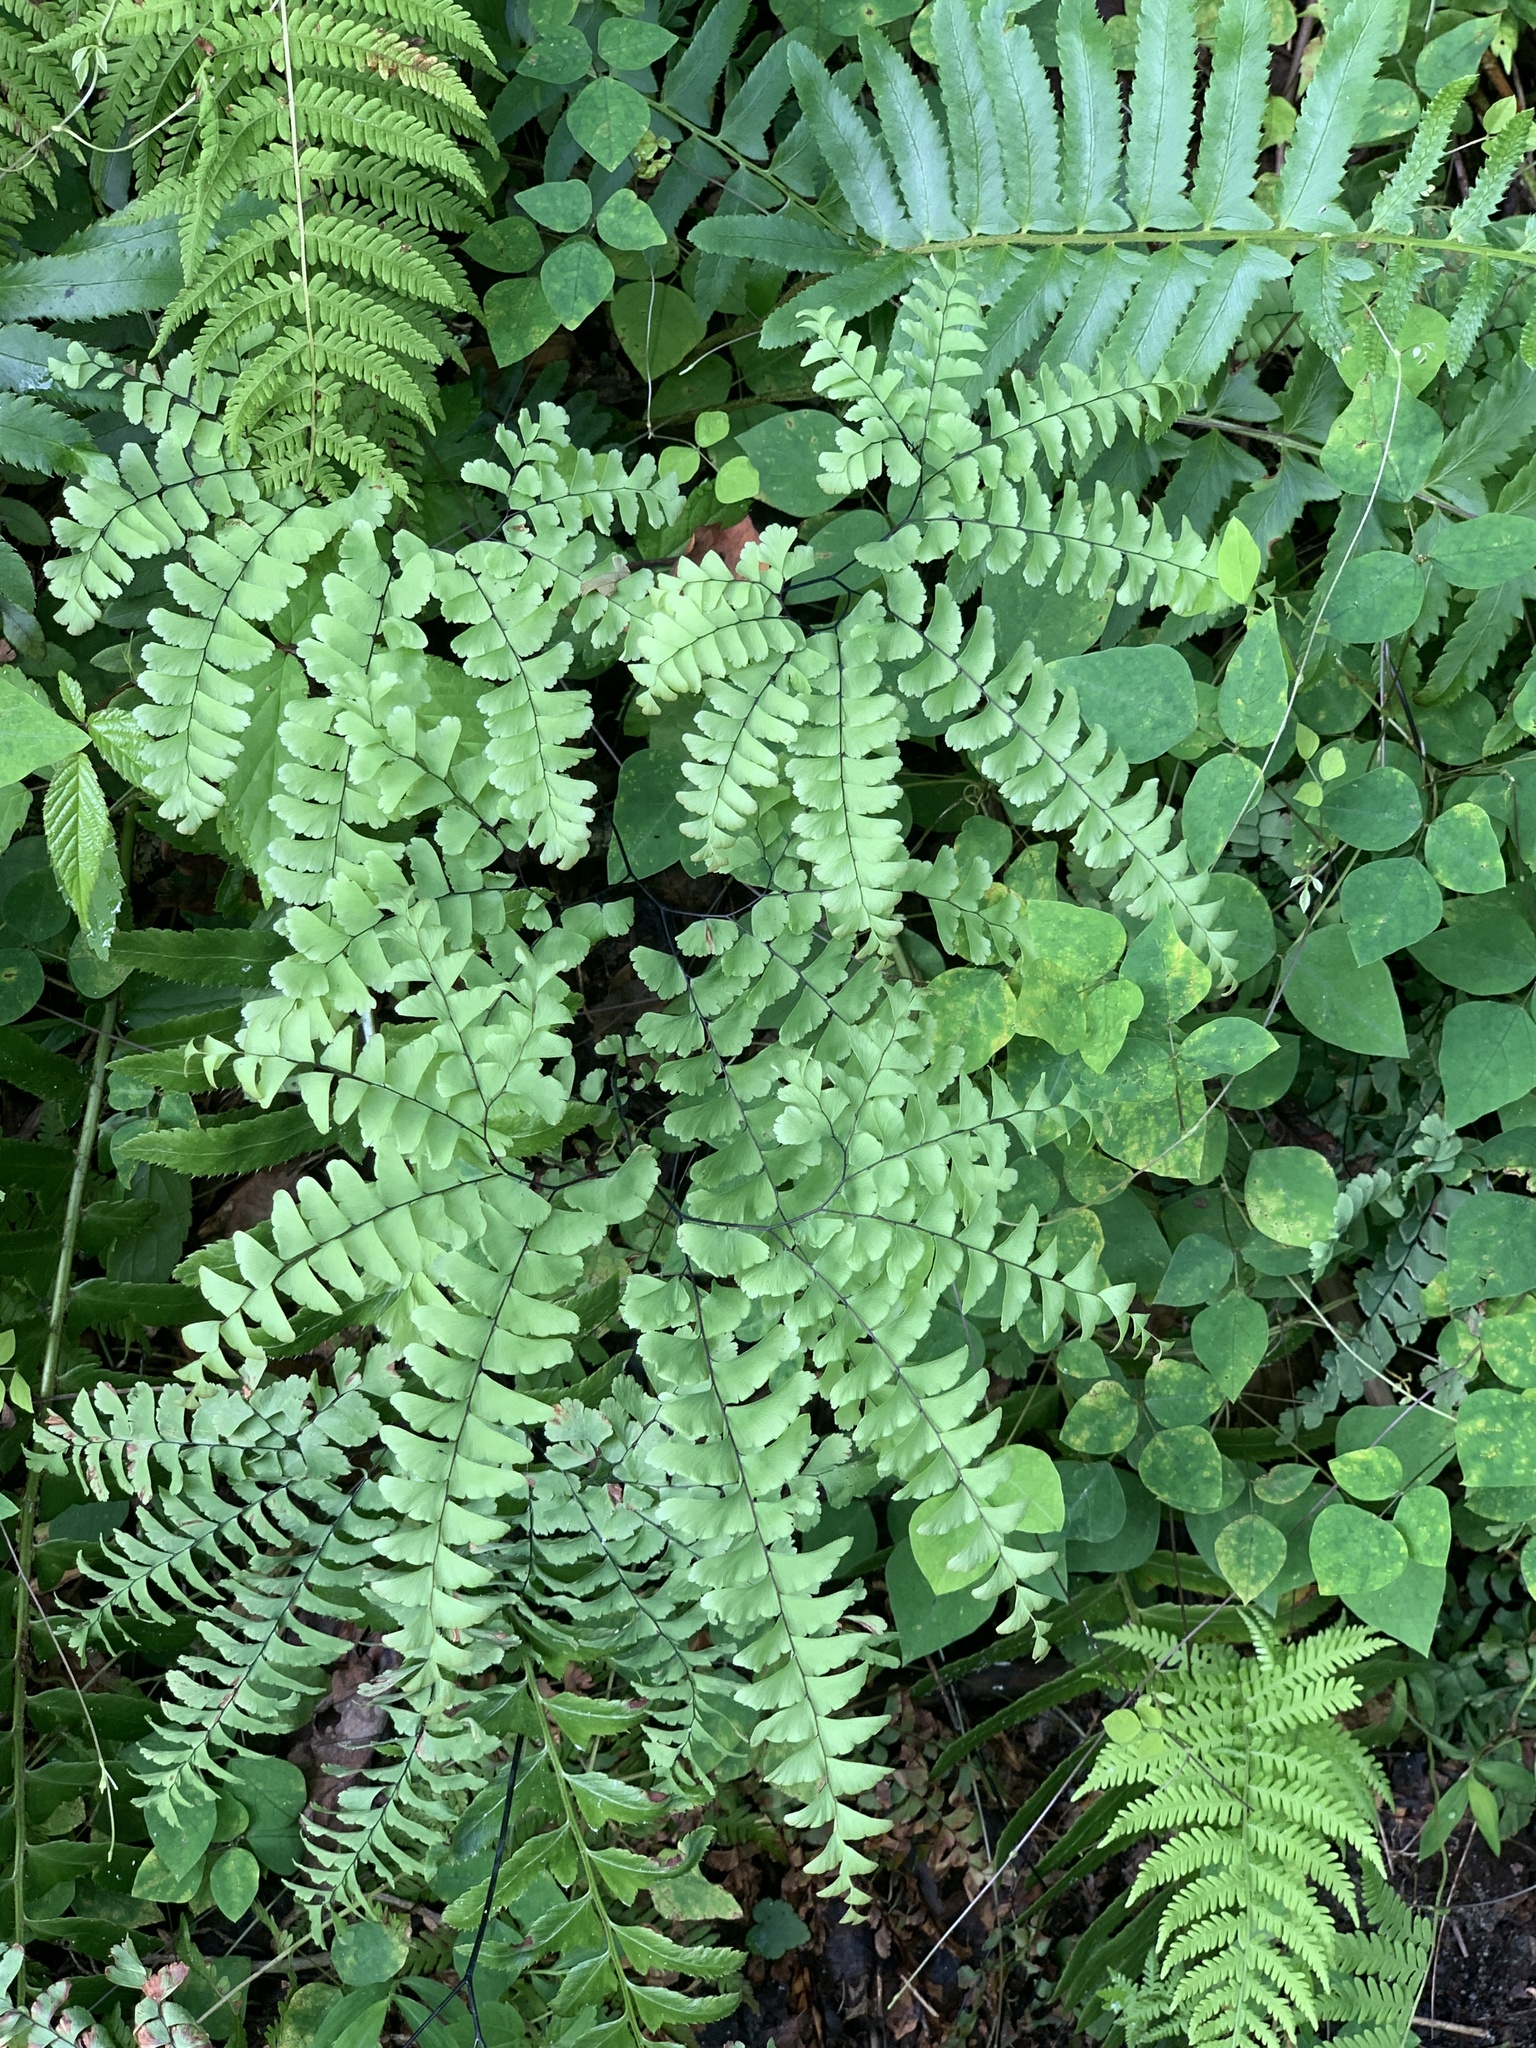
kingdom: Plantae
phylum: Tracheophyta
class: Polypodiopsida
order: Polypodiales
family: Pteridaceae
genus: Adiantum
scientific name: Adiantum pedatum
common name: Five-finger fern
